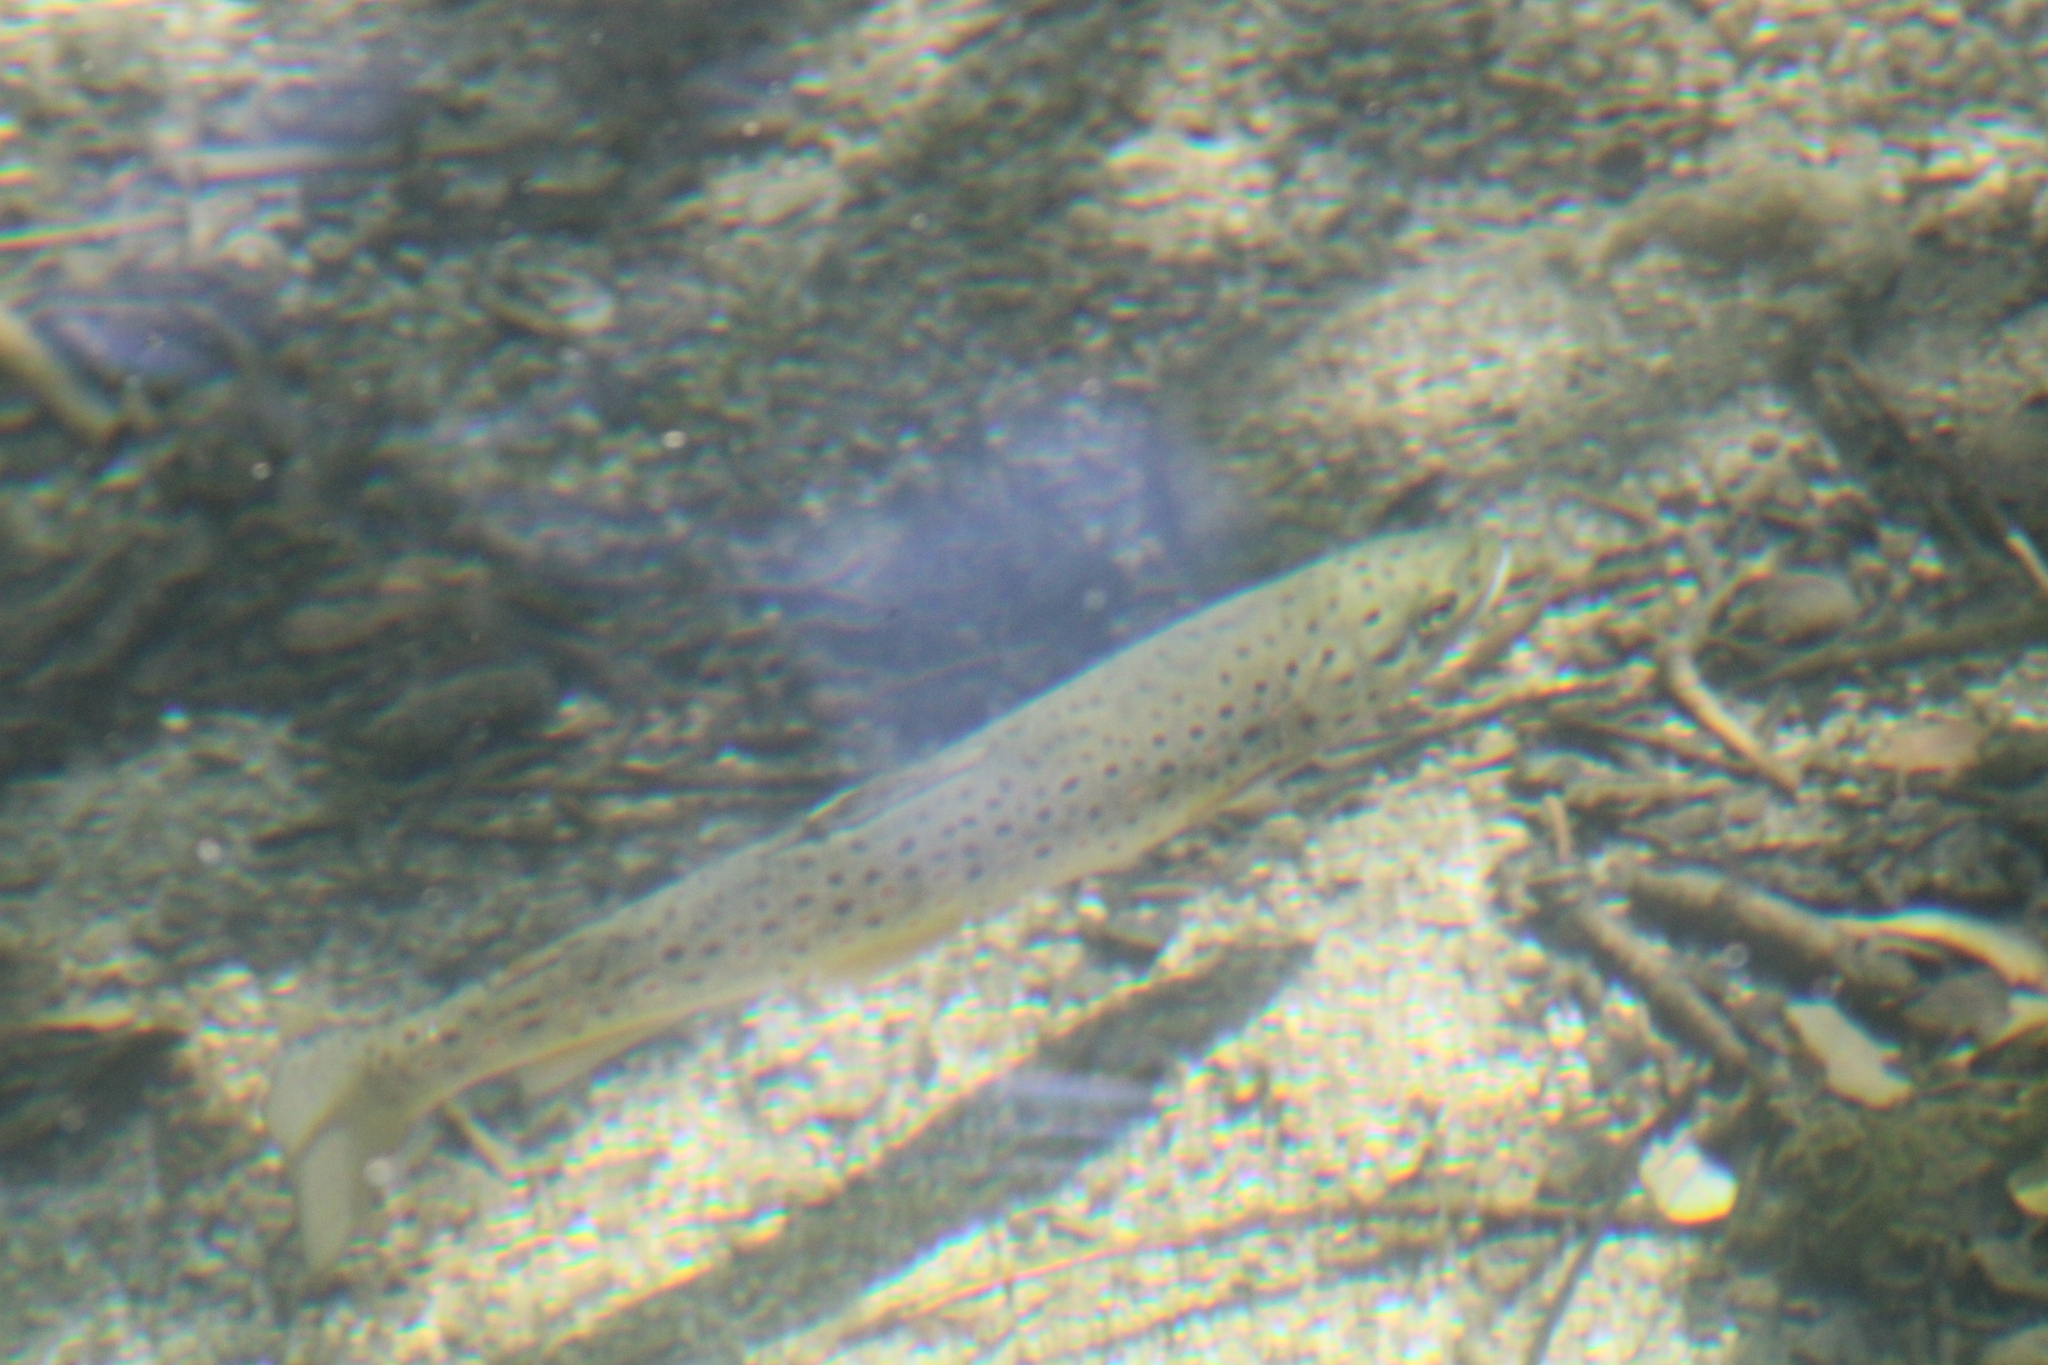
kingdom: Animalia
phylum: Chordata
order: Salmoniformes
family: Salmonidae
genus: Salmo
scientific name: Salmo trutta
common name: Brown trout
